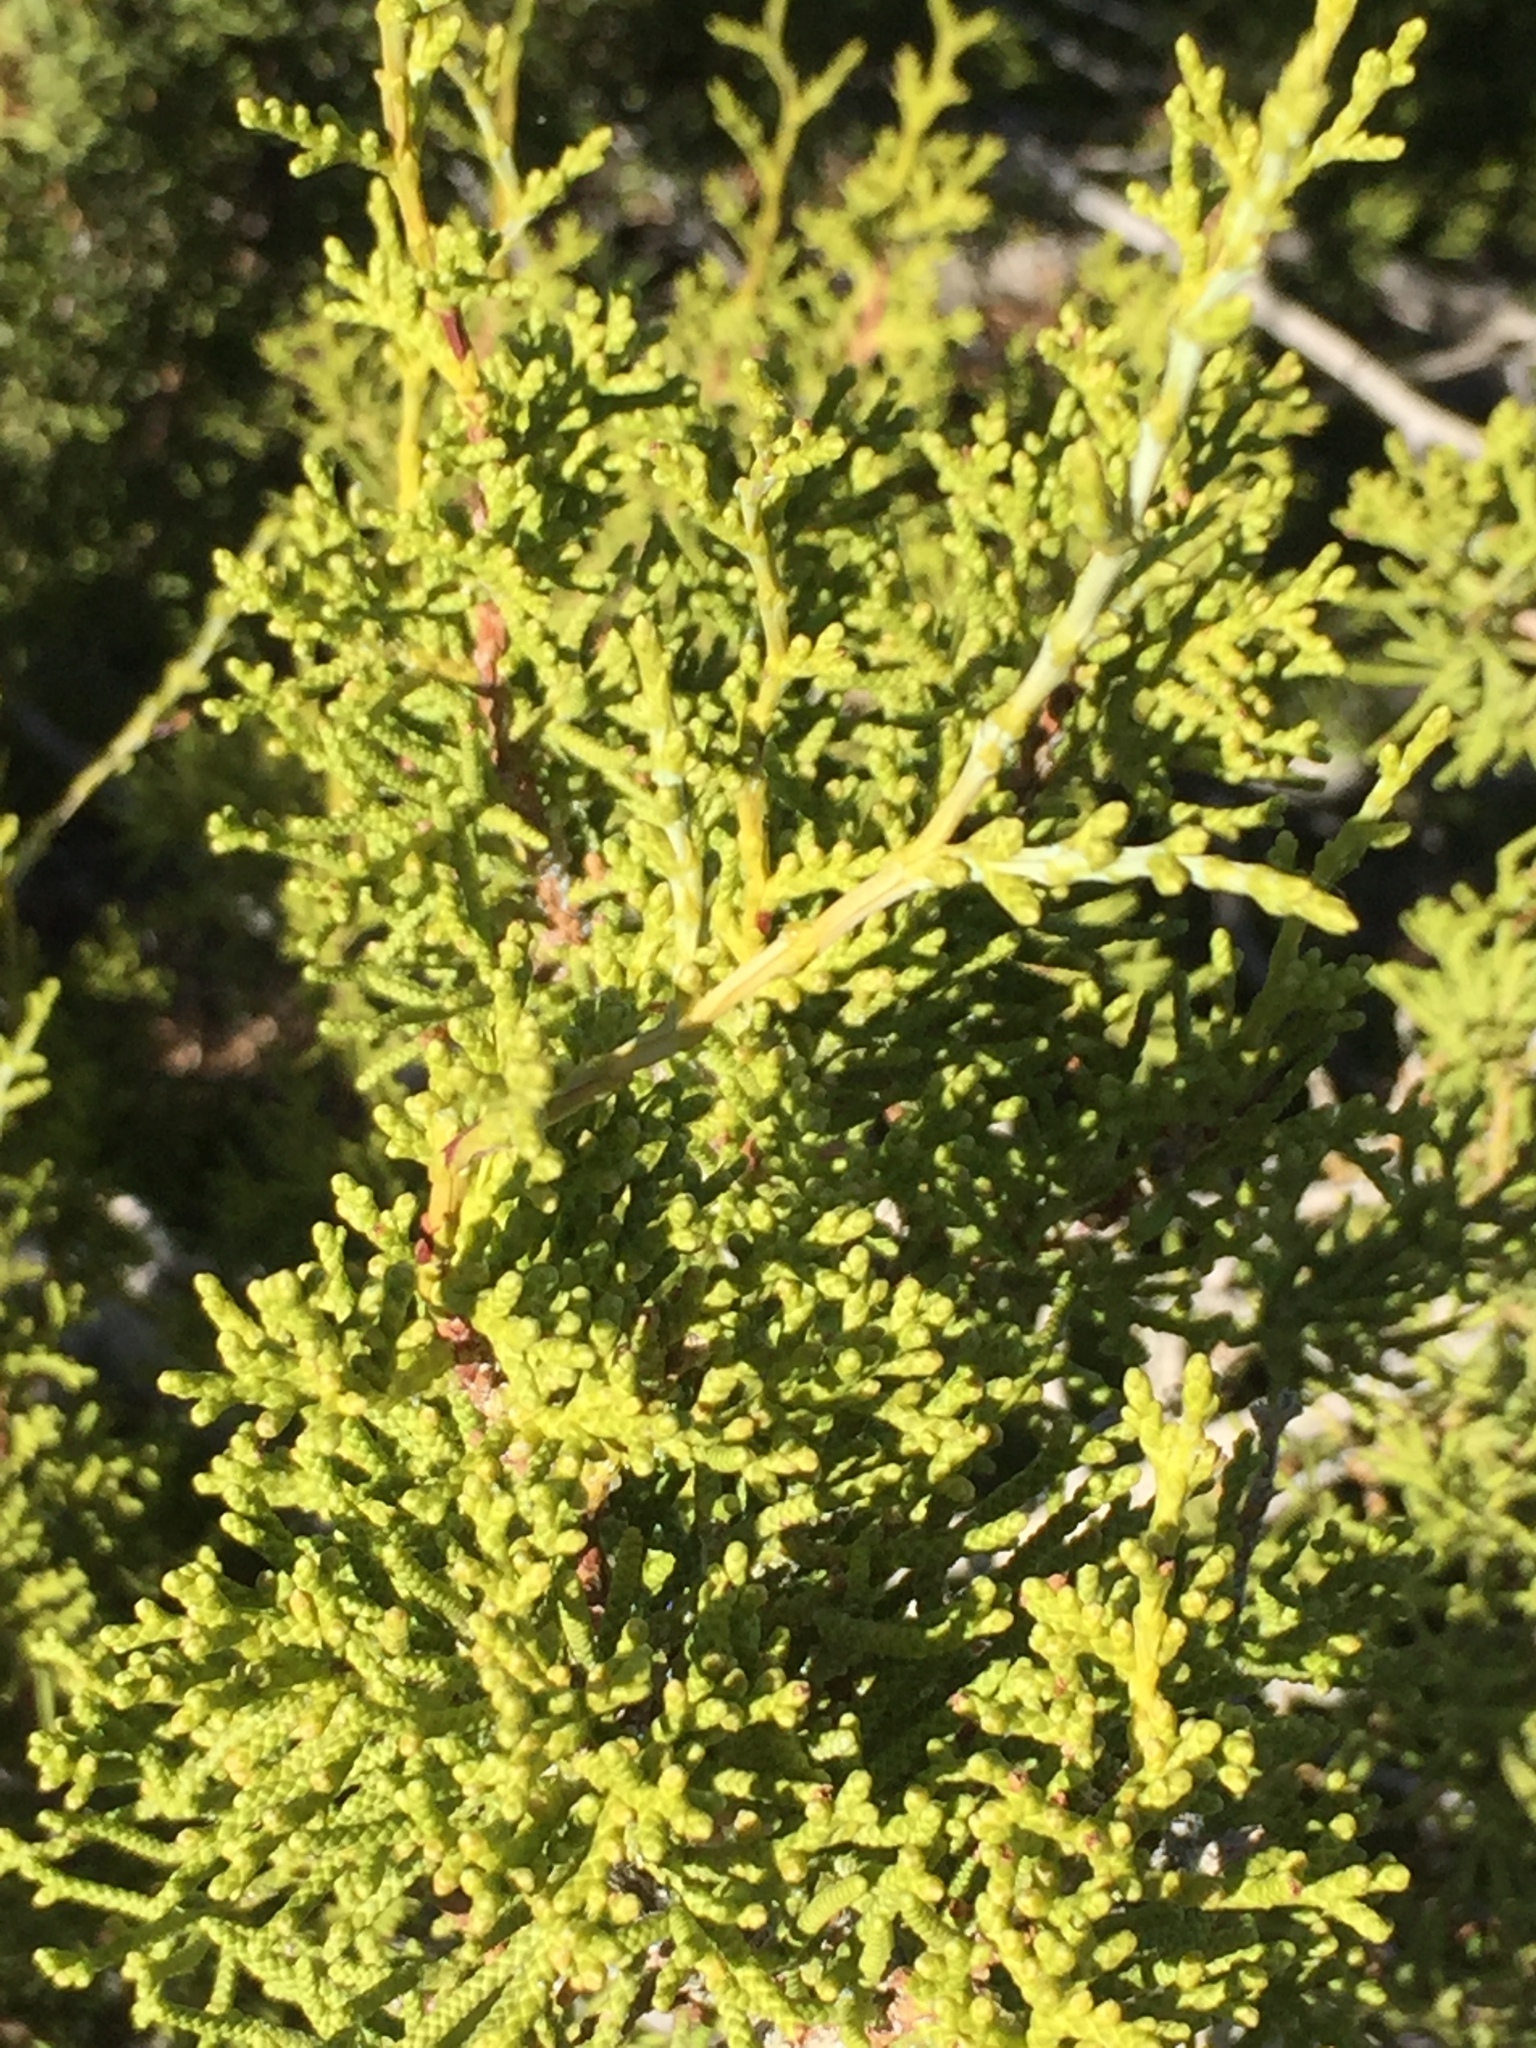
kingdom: Plantae
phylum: Tracheophyta
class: Pinopsida
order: Pinales
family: Cupressaceae
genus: Juniperus
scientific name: Juniperus californica
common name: California juniper
